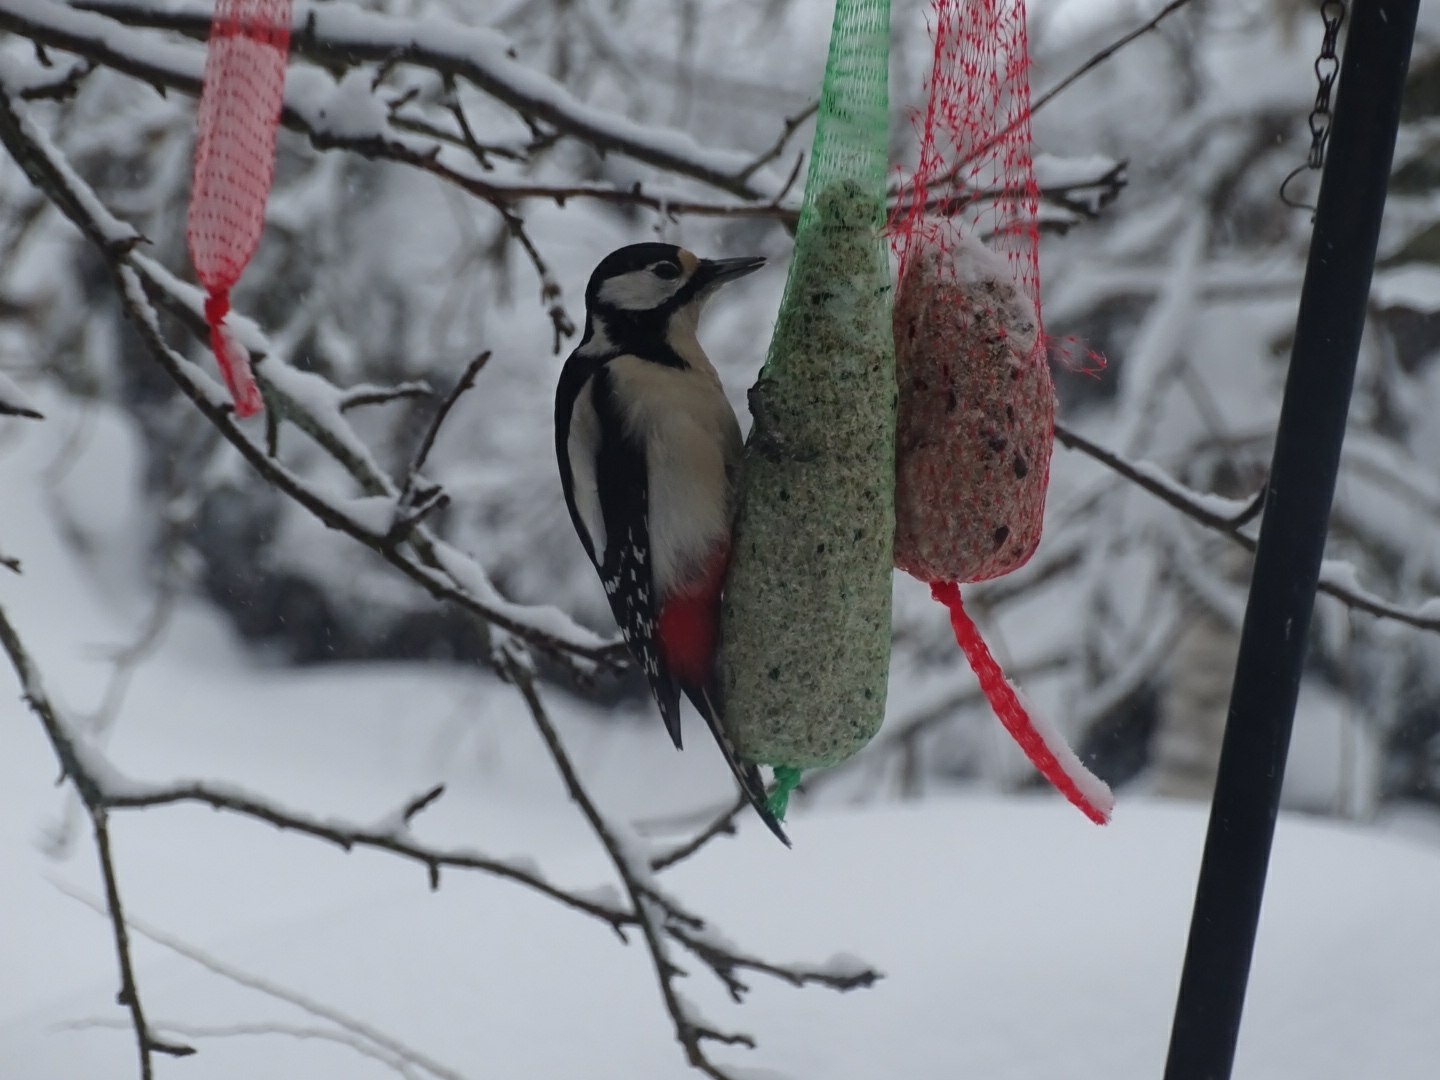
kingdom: Animalia
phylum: Chordata
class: Aves
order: Piciformes
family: Picidae
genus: Dendrocopos
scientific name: Dendrocopos major
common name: Great spotted woodpecker
